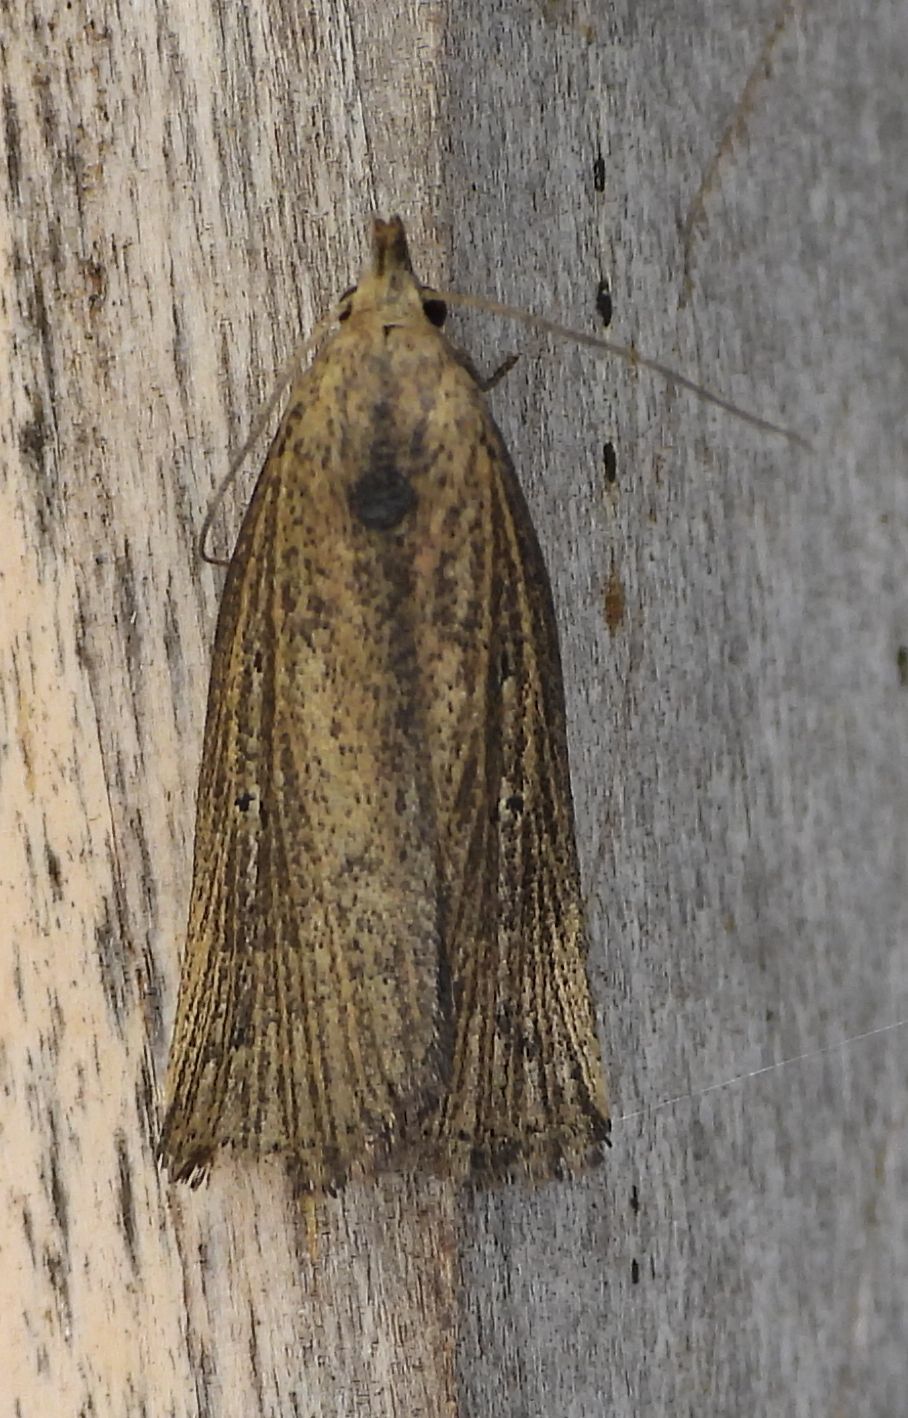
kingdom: Animalia
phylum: Arthropoda
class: Insecta
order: Lepidoptera
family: Erebidae
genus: Macrochilo
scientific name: Macrochilo orciferalis
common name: Bronzy owlet
